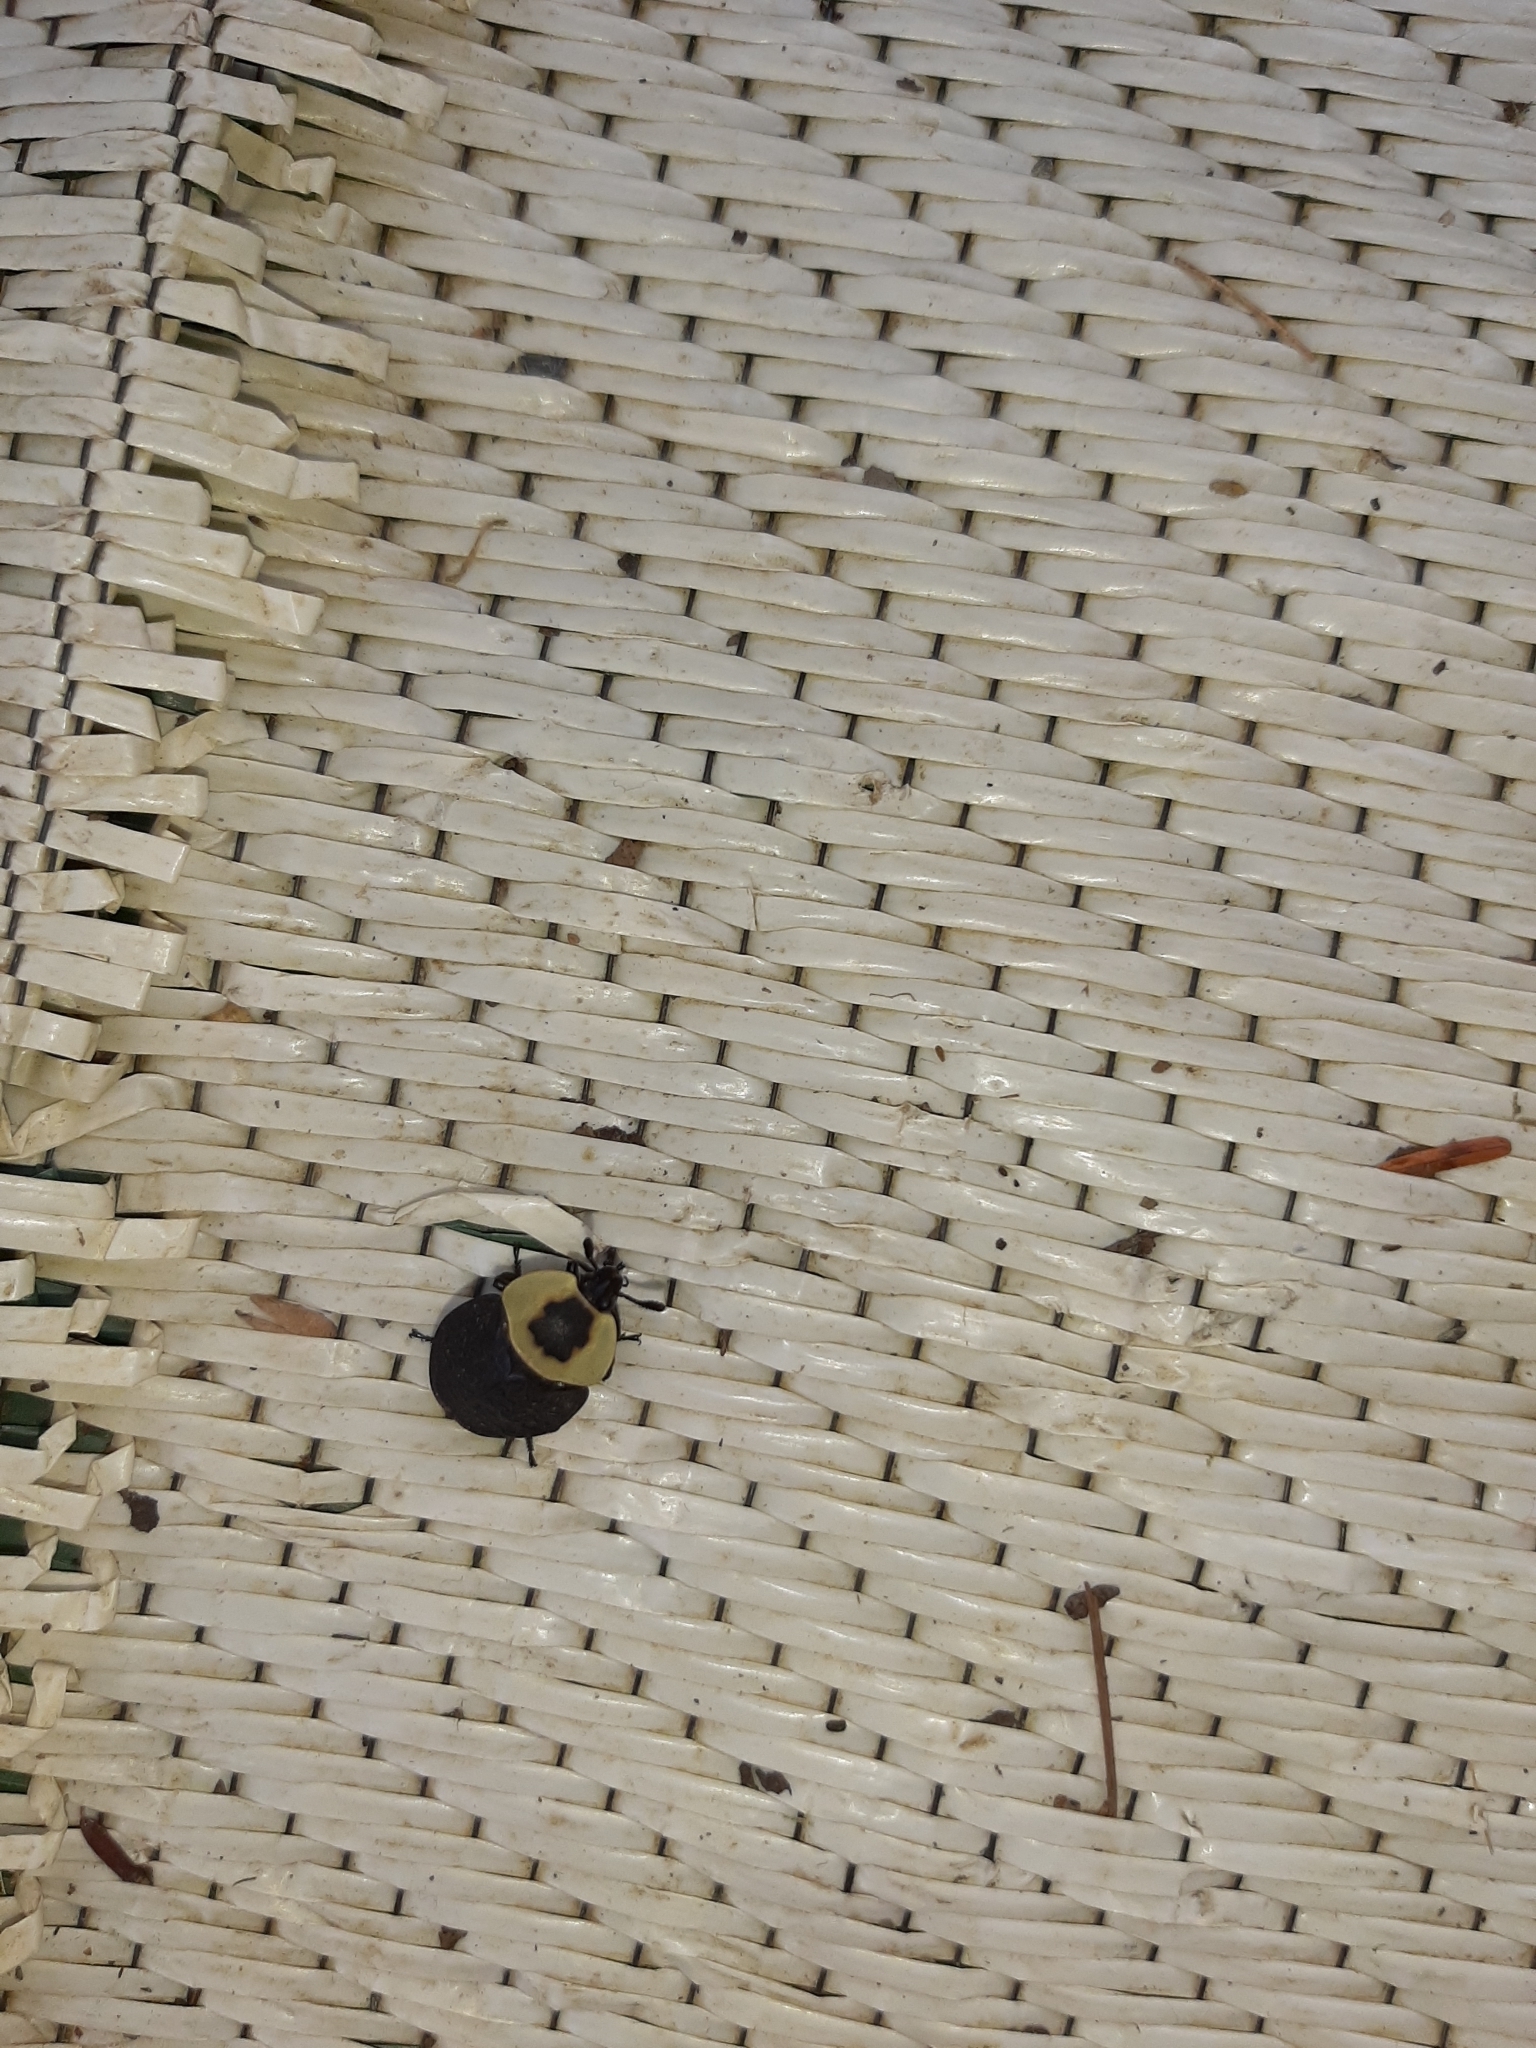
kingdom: Animalia
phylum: Arthropoda
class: Insecta
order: Coleoptera
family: Staphylinidae
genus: Necrophila
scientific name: Necrophila americana
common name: American carrion beetle
